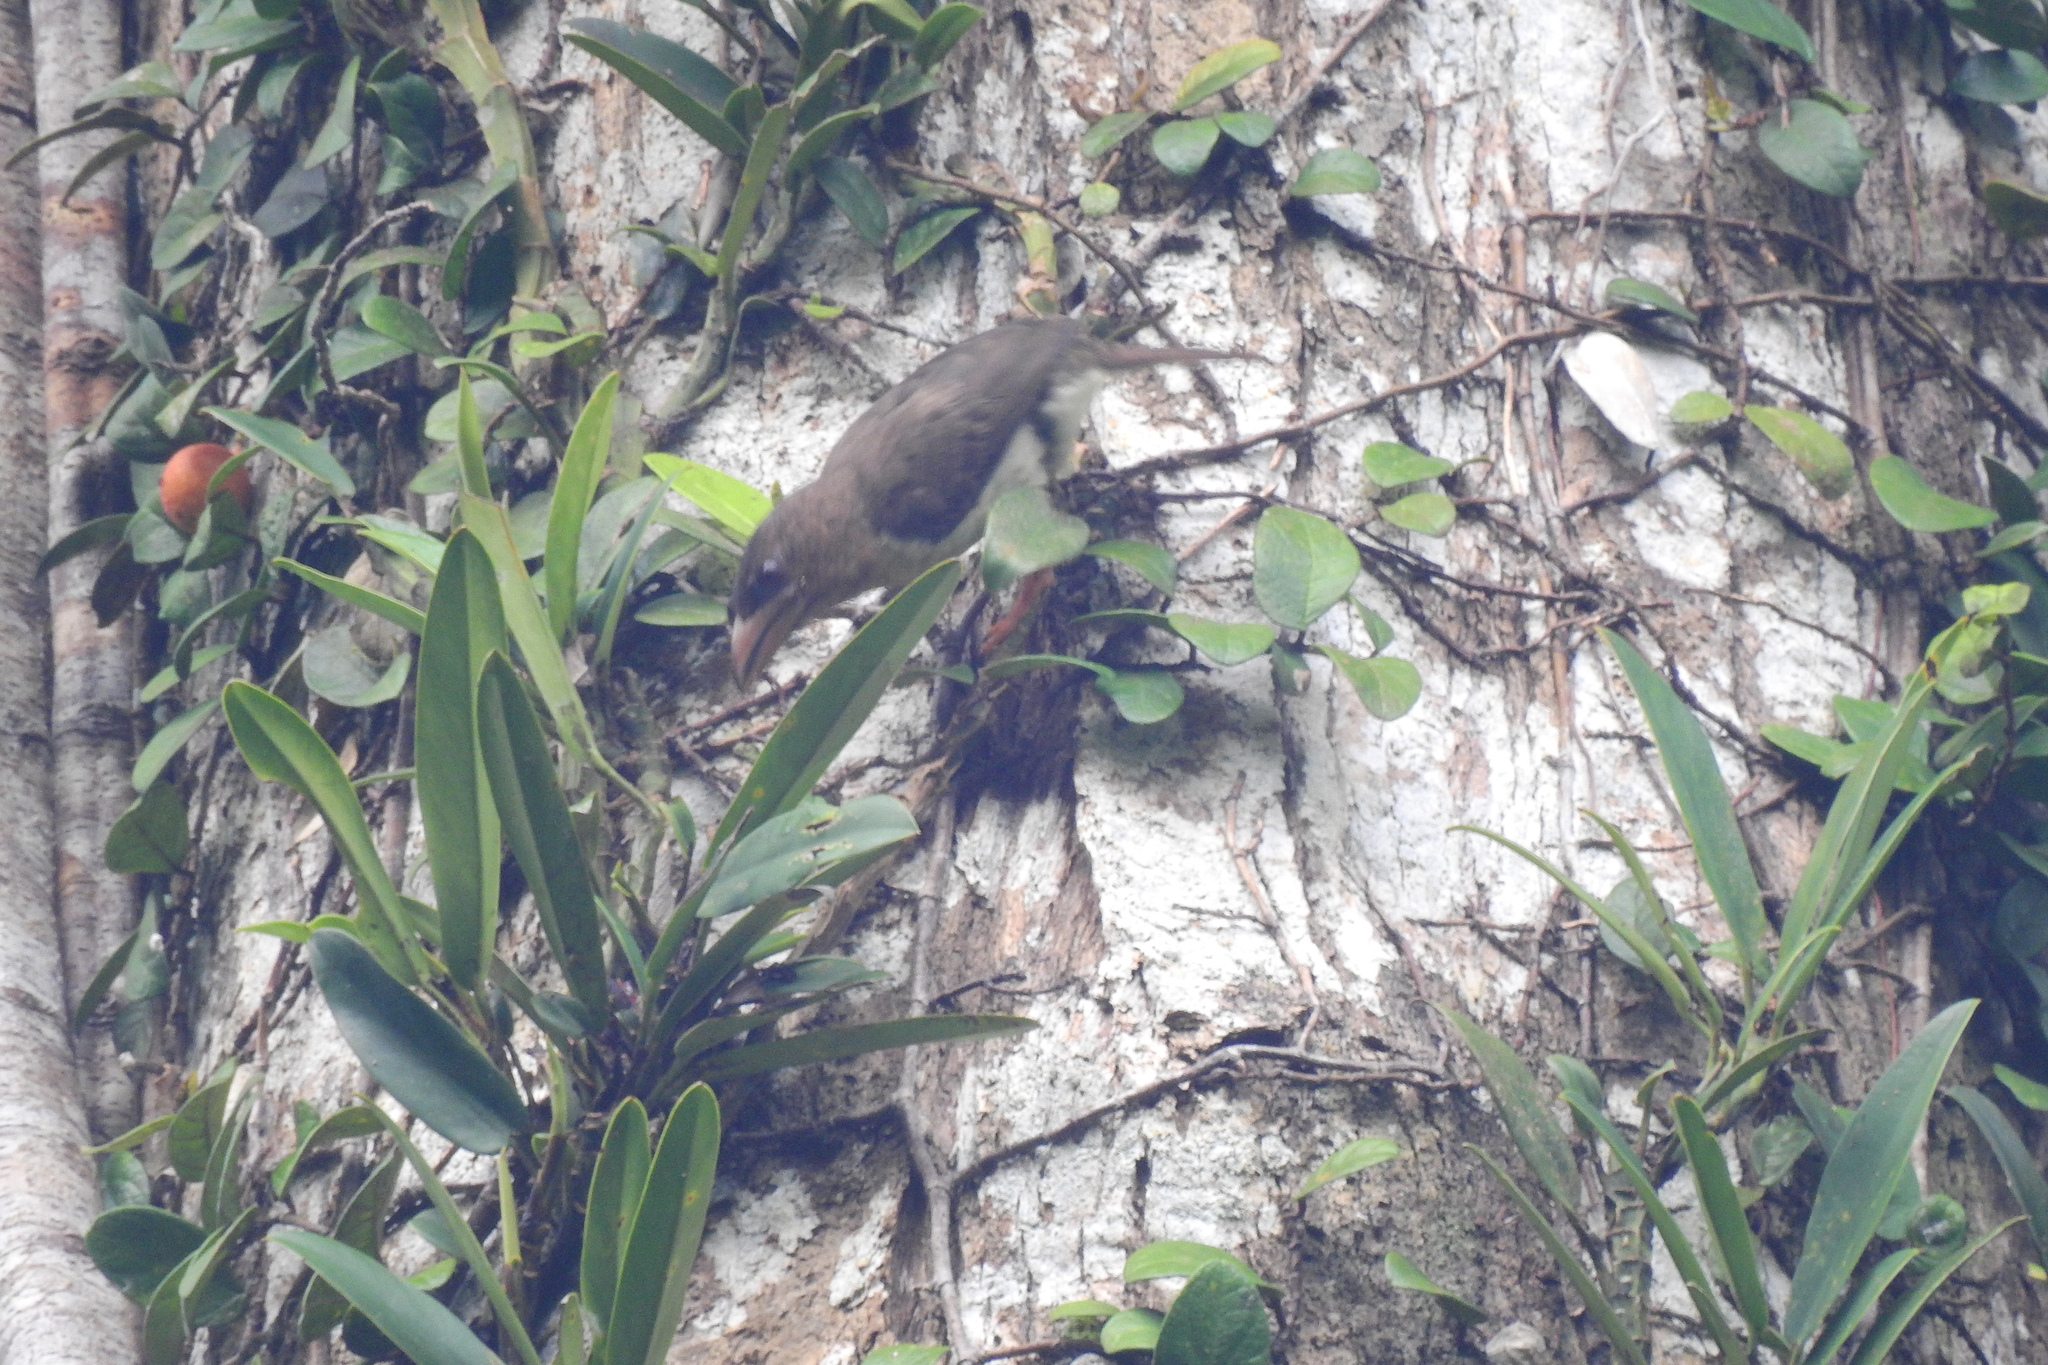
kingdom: Animalia
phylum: Chordata
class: Aves
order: Piciformes
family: Megalaimidae
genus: Caloramphus
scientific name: Caloramphus hayii
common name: Sooty barbet
